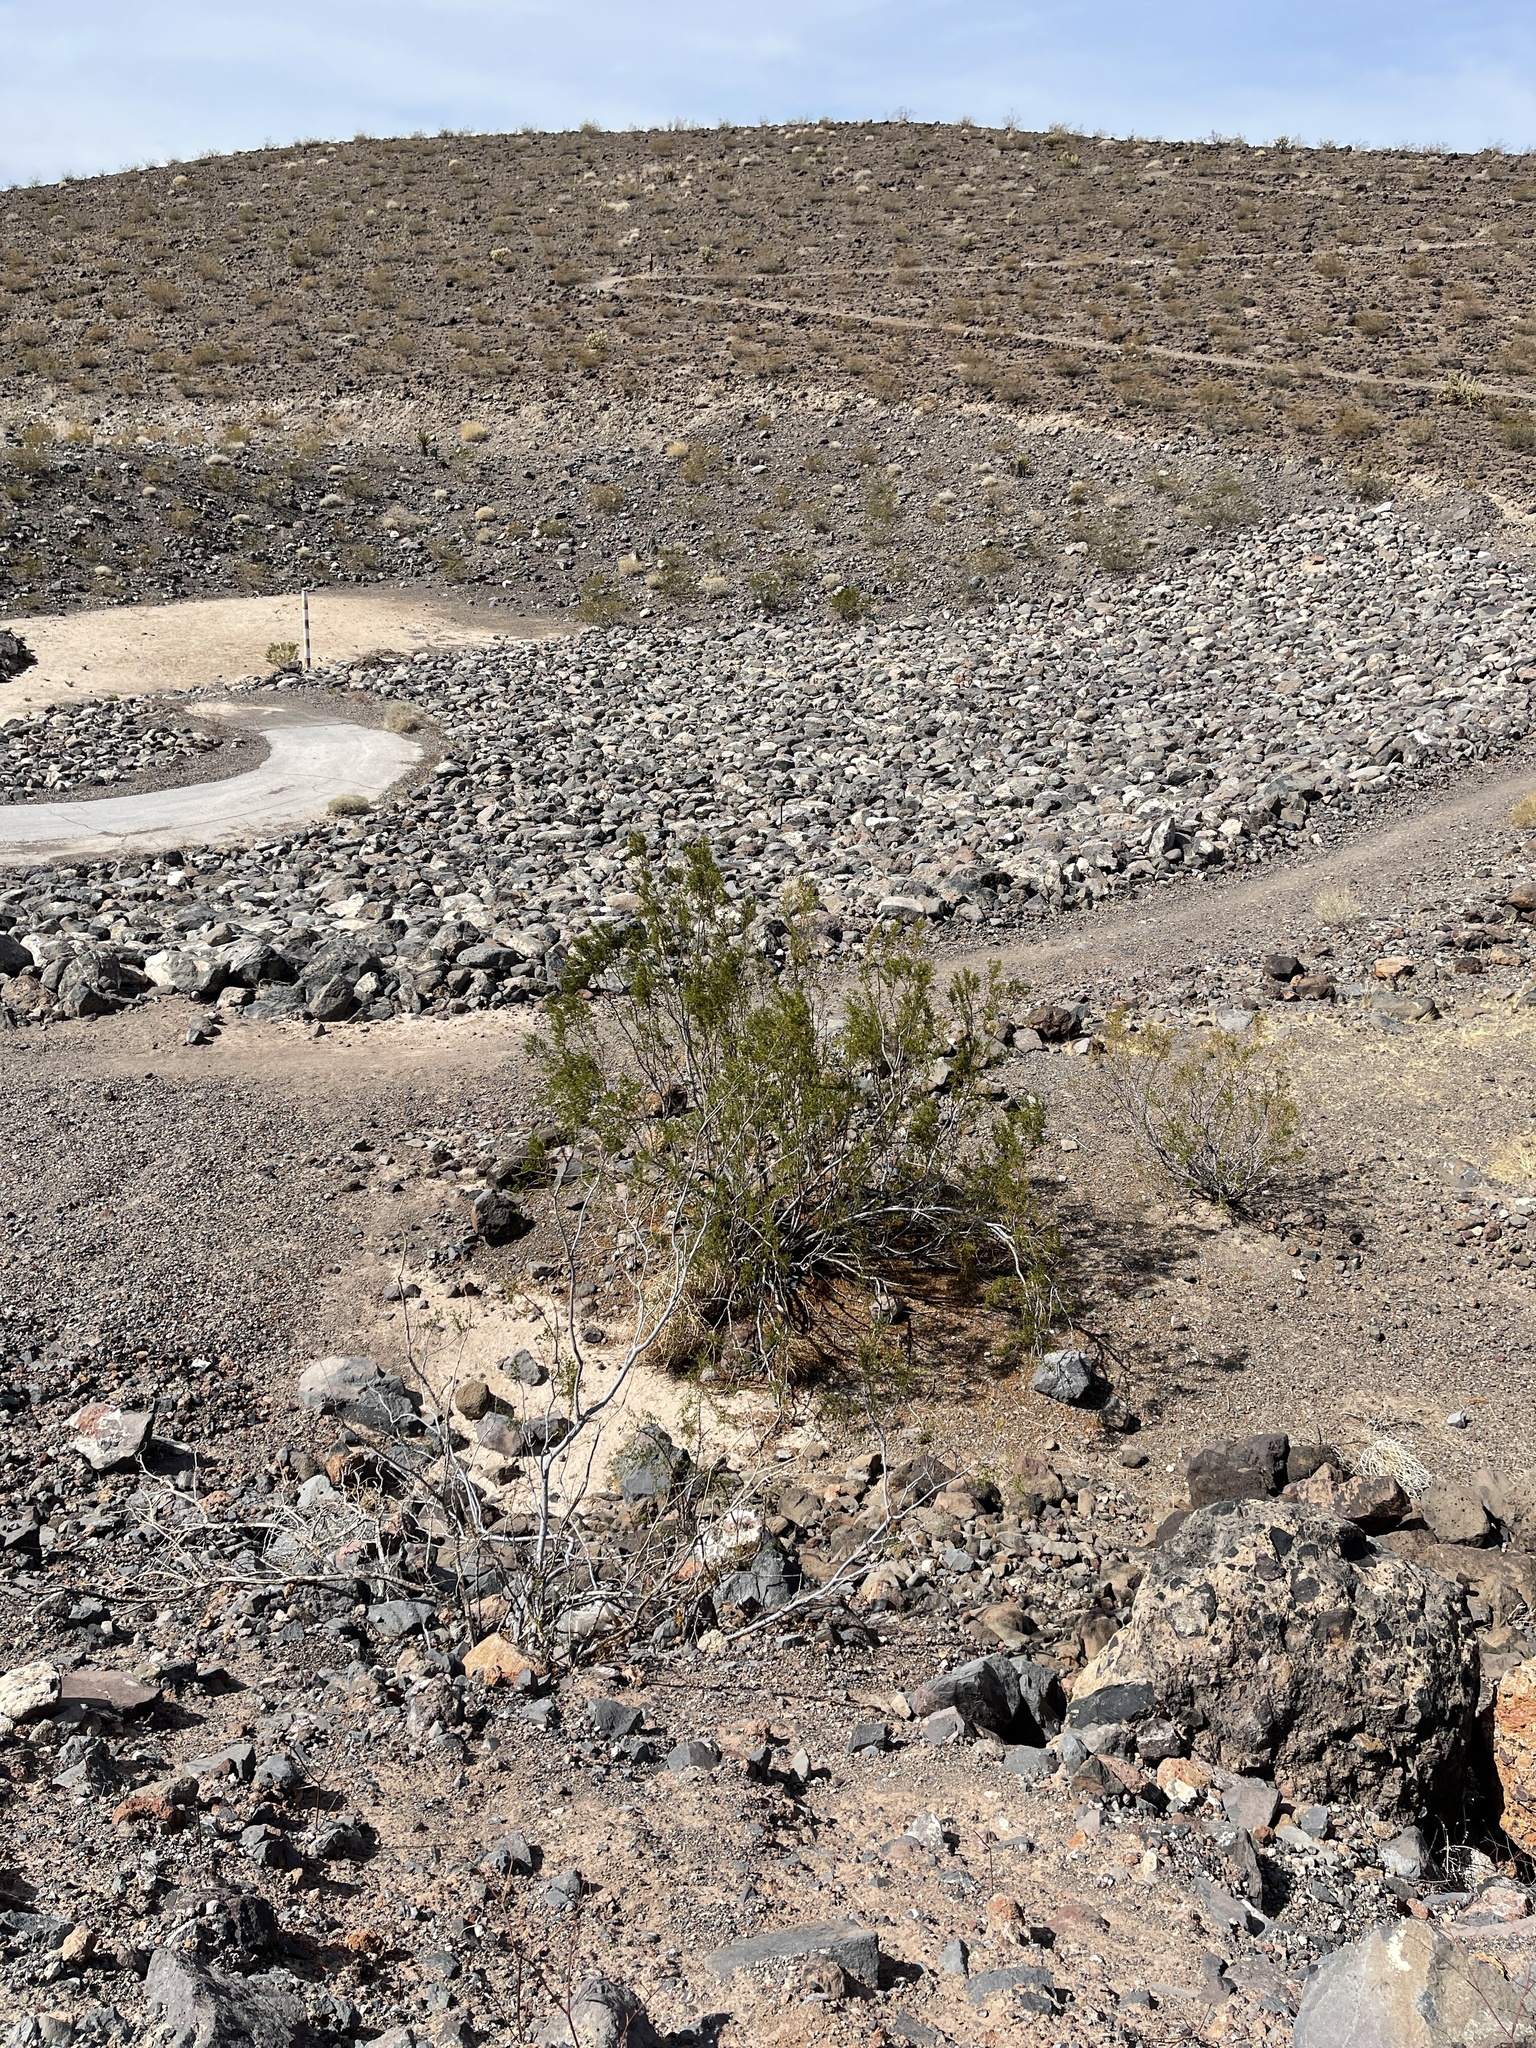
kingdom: Plantae
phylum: Tracheophyta
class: Magnoliopsida
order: Zygophyllales
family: Zygophyllaceae
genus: Larrea
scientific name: Larrea tridentata
